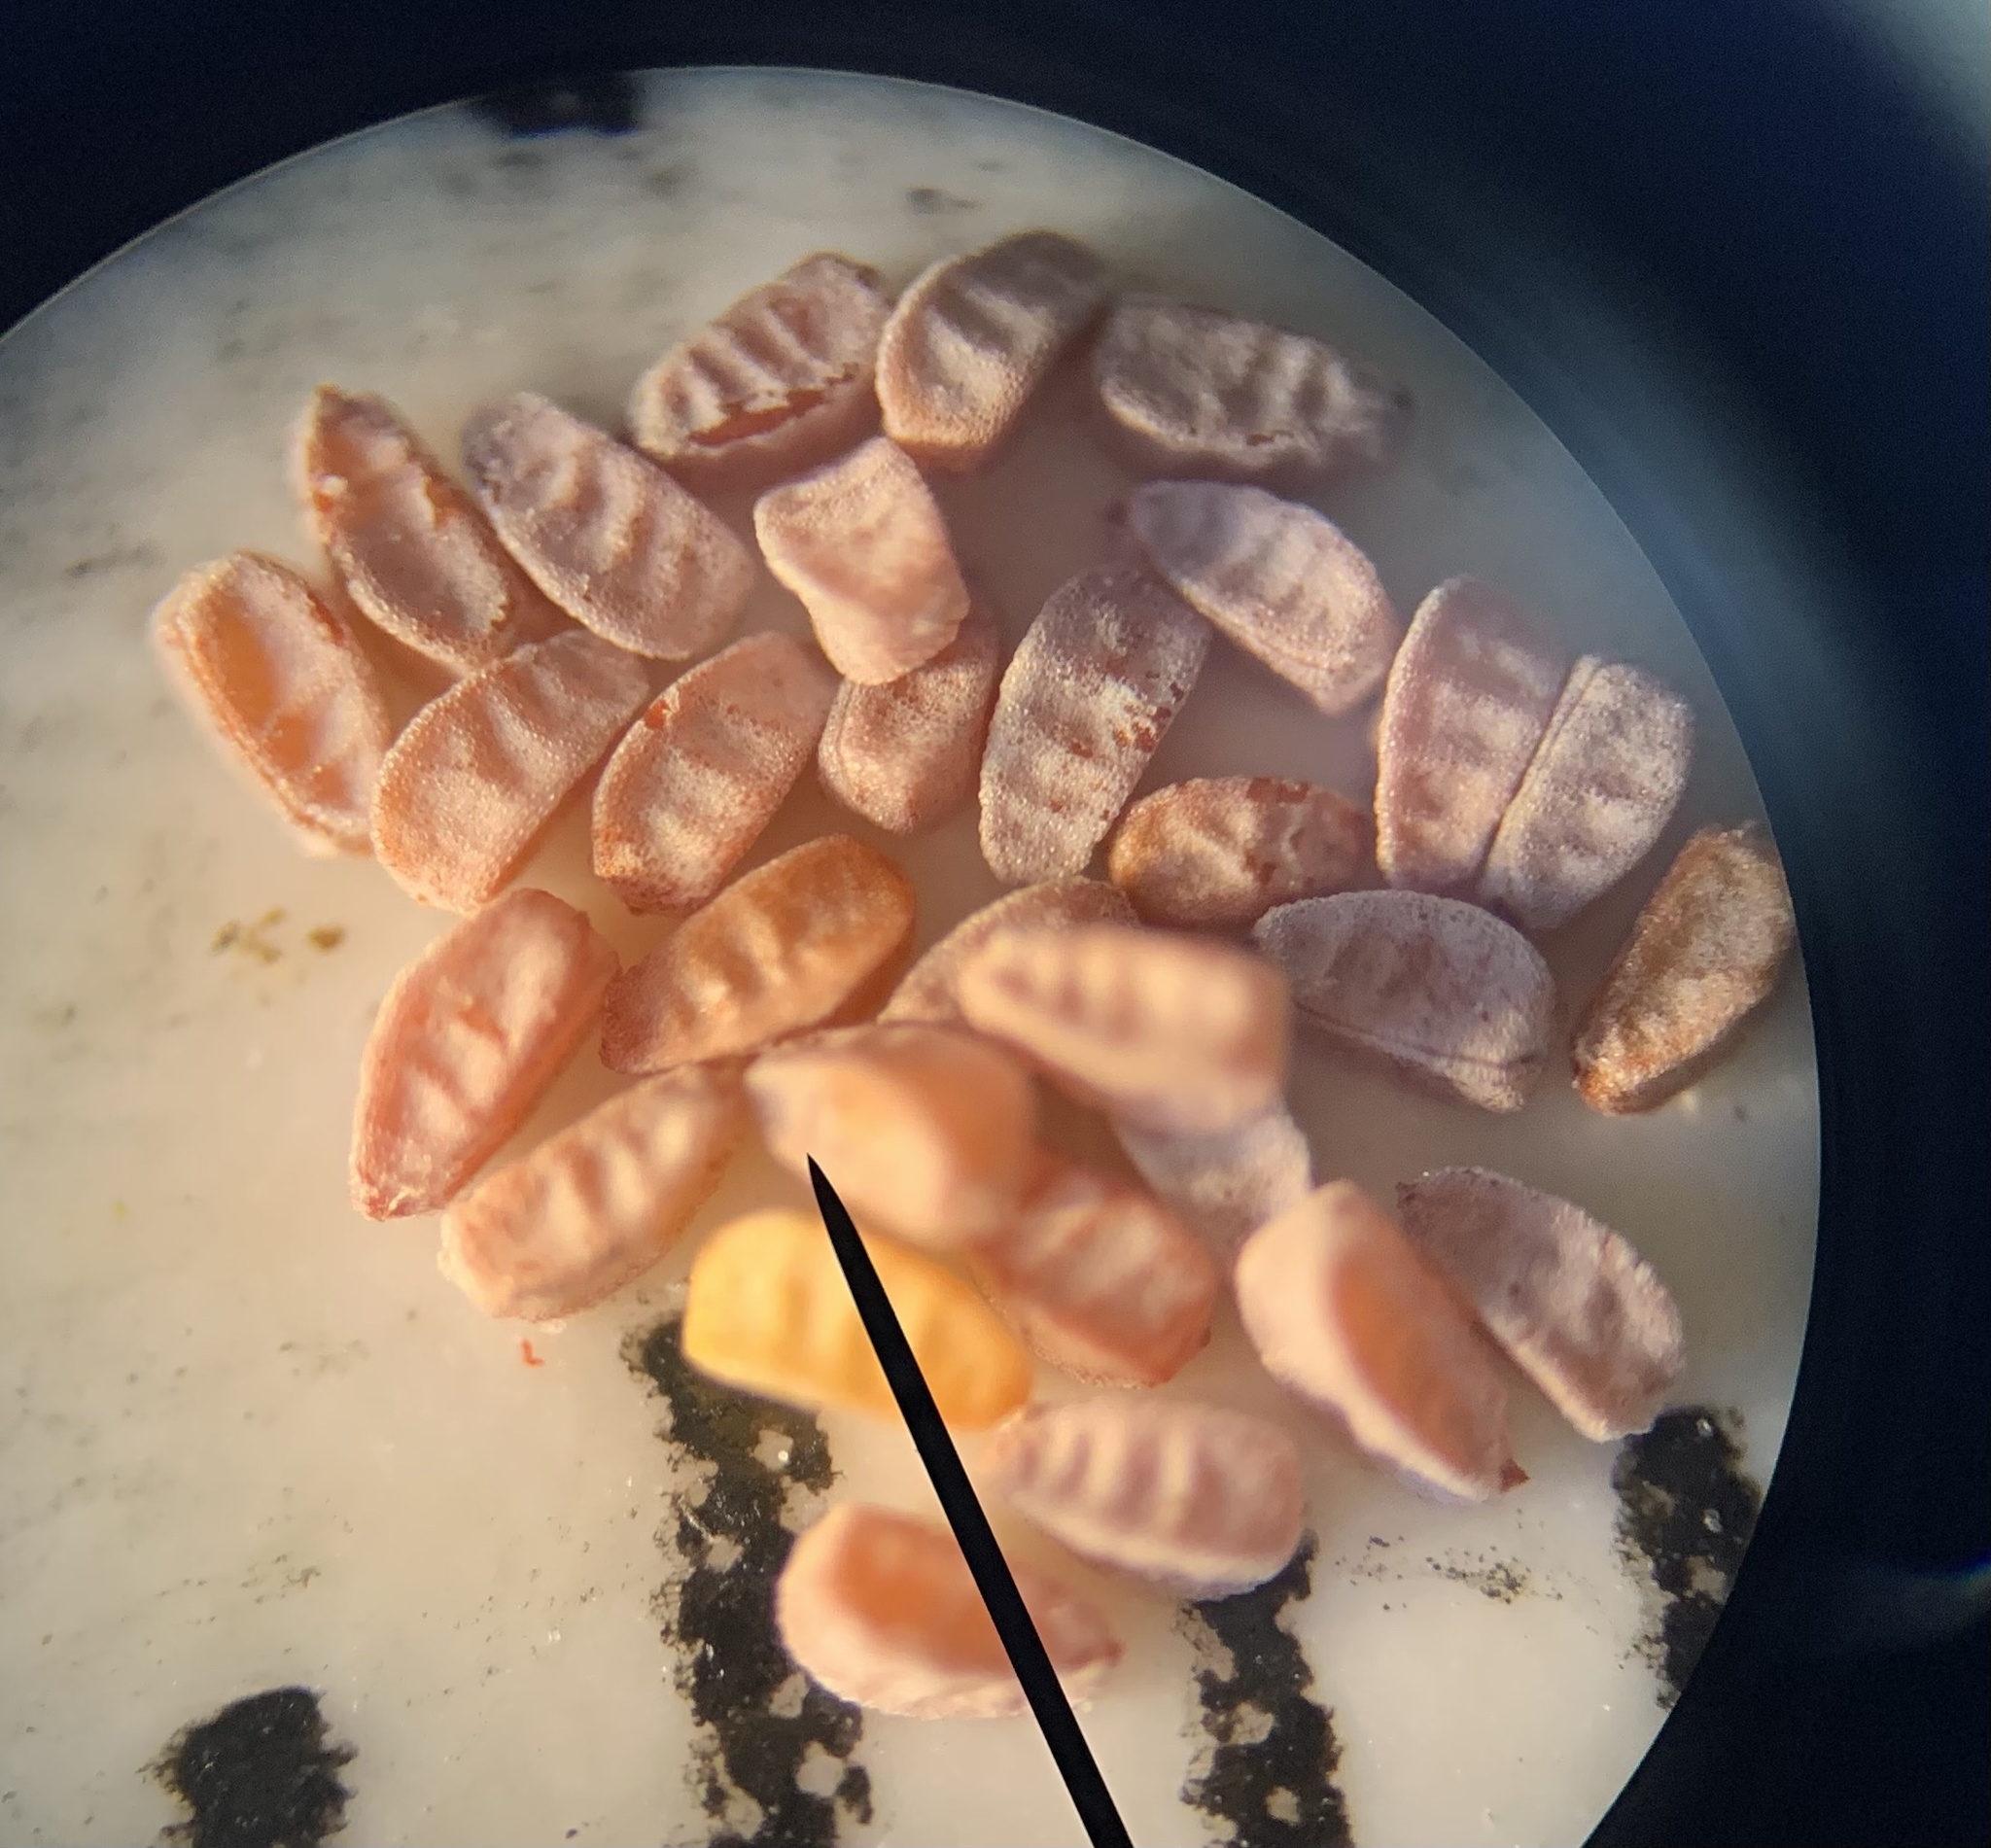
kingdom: Plantae
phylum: Tracheophyta
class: Magnoliopsida
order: Malpighiales
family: Euphorbiaceae
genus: Euphorbia
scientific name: Euphorbia thymifolia
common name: Gulf sandmat
